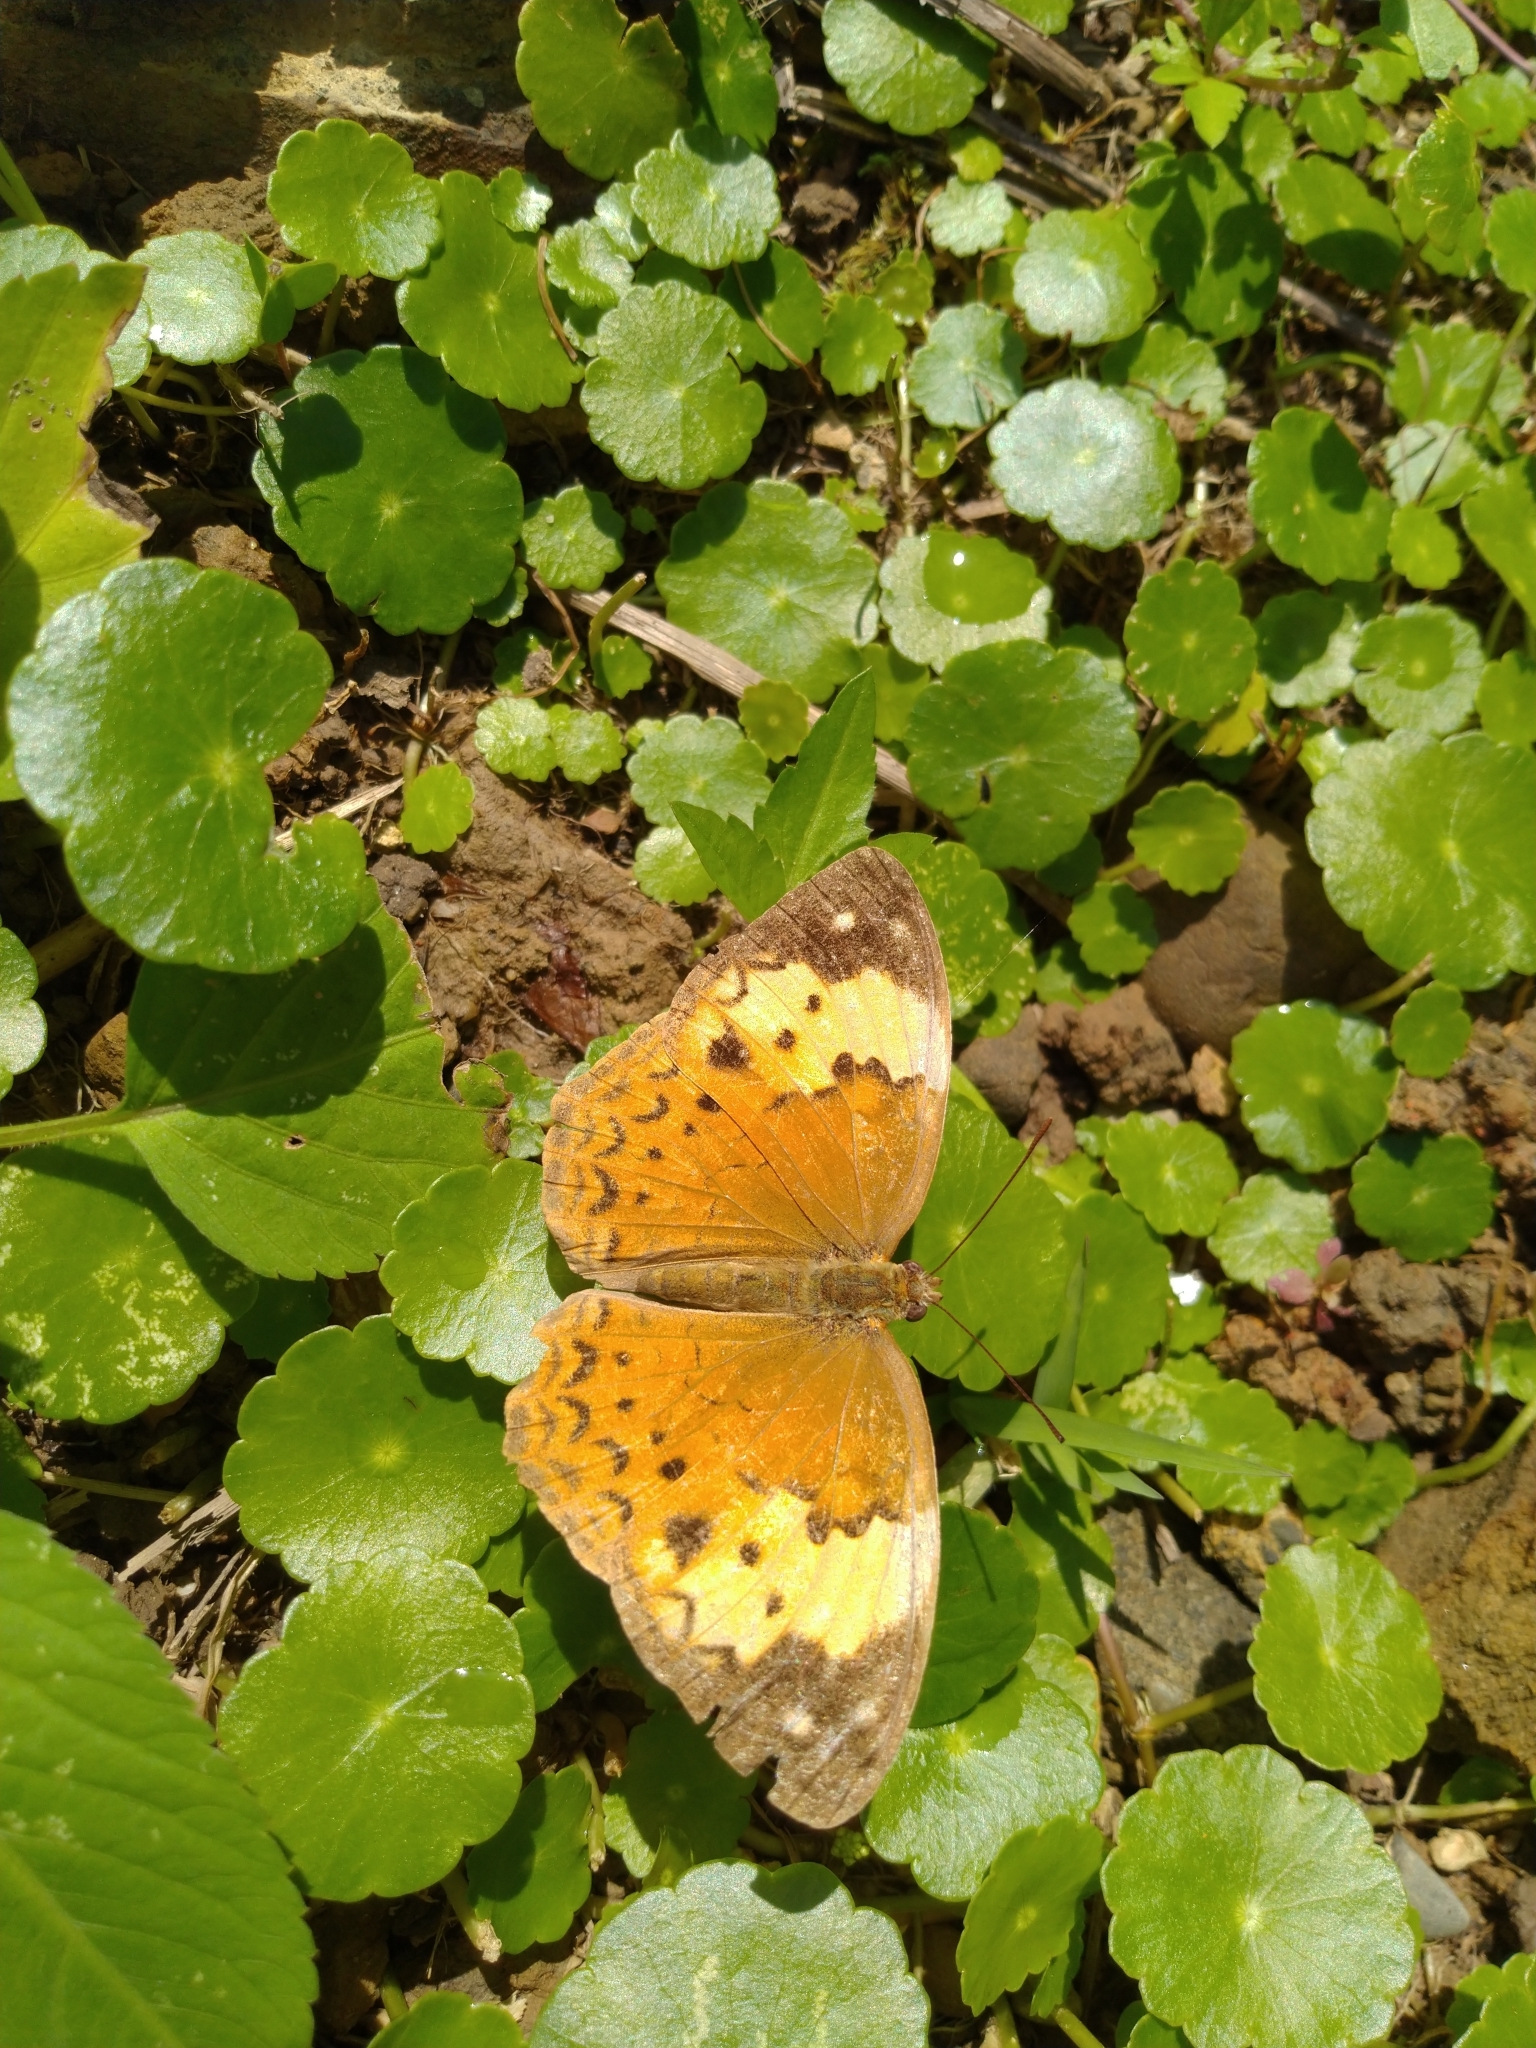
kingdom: Animalia
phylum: Arthropoda
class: Insecta
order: Lepidoptera
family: Nymphalidae
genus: Cupha
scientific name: Cupha erymanthis
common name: Rustic
